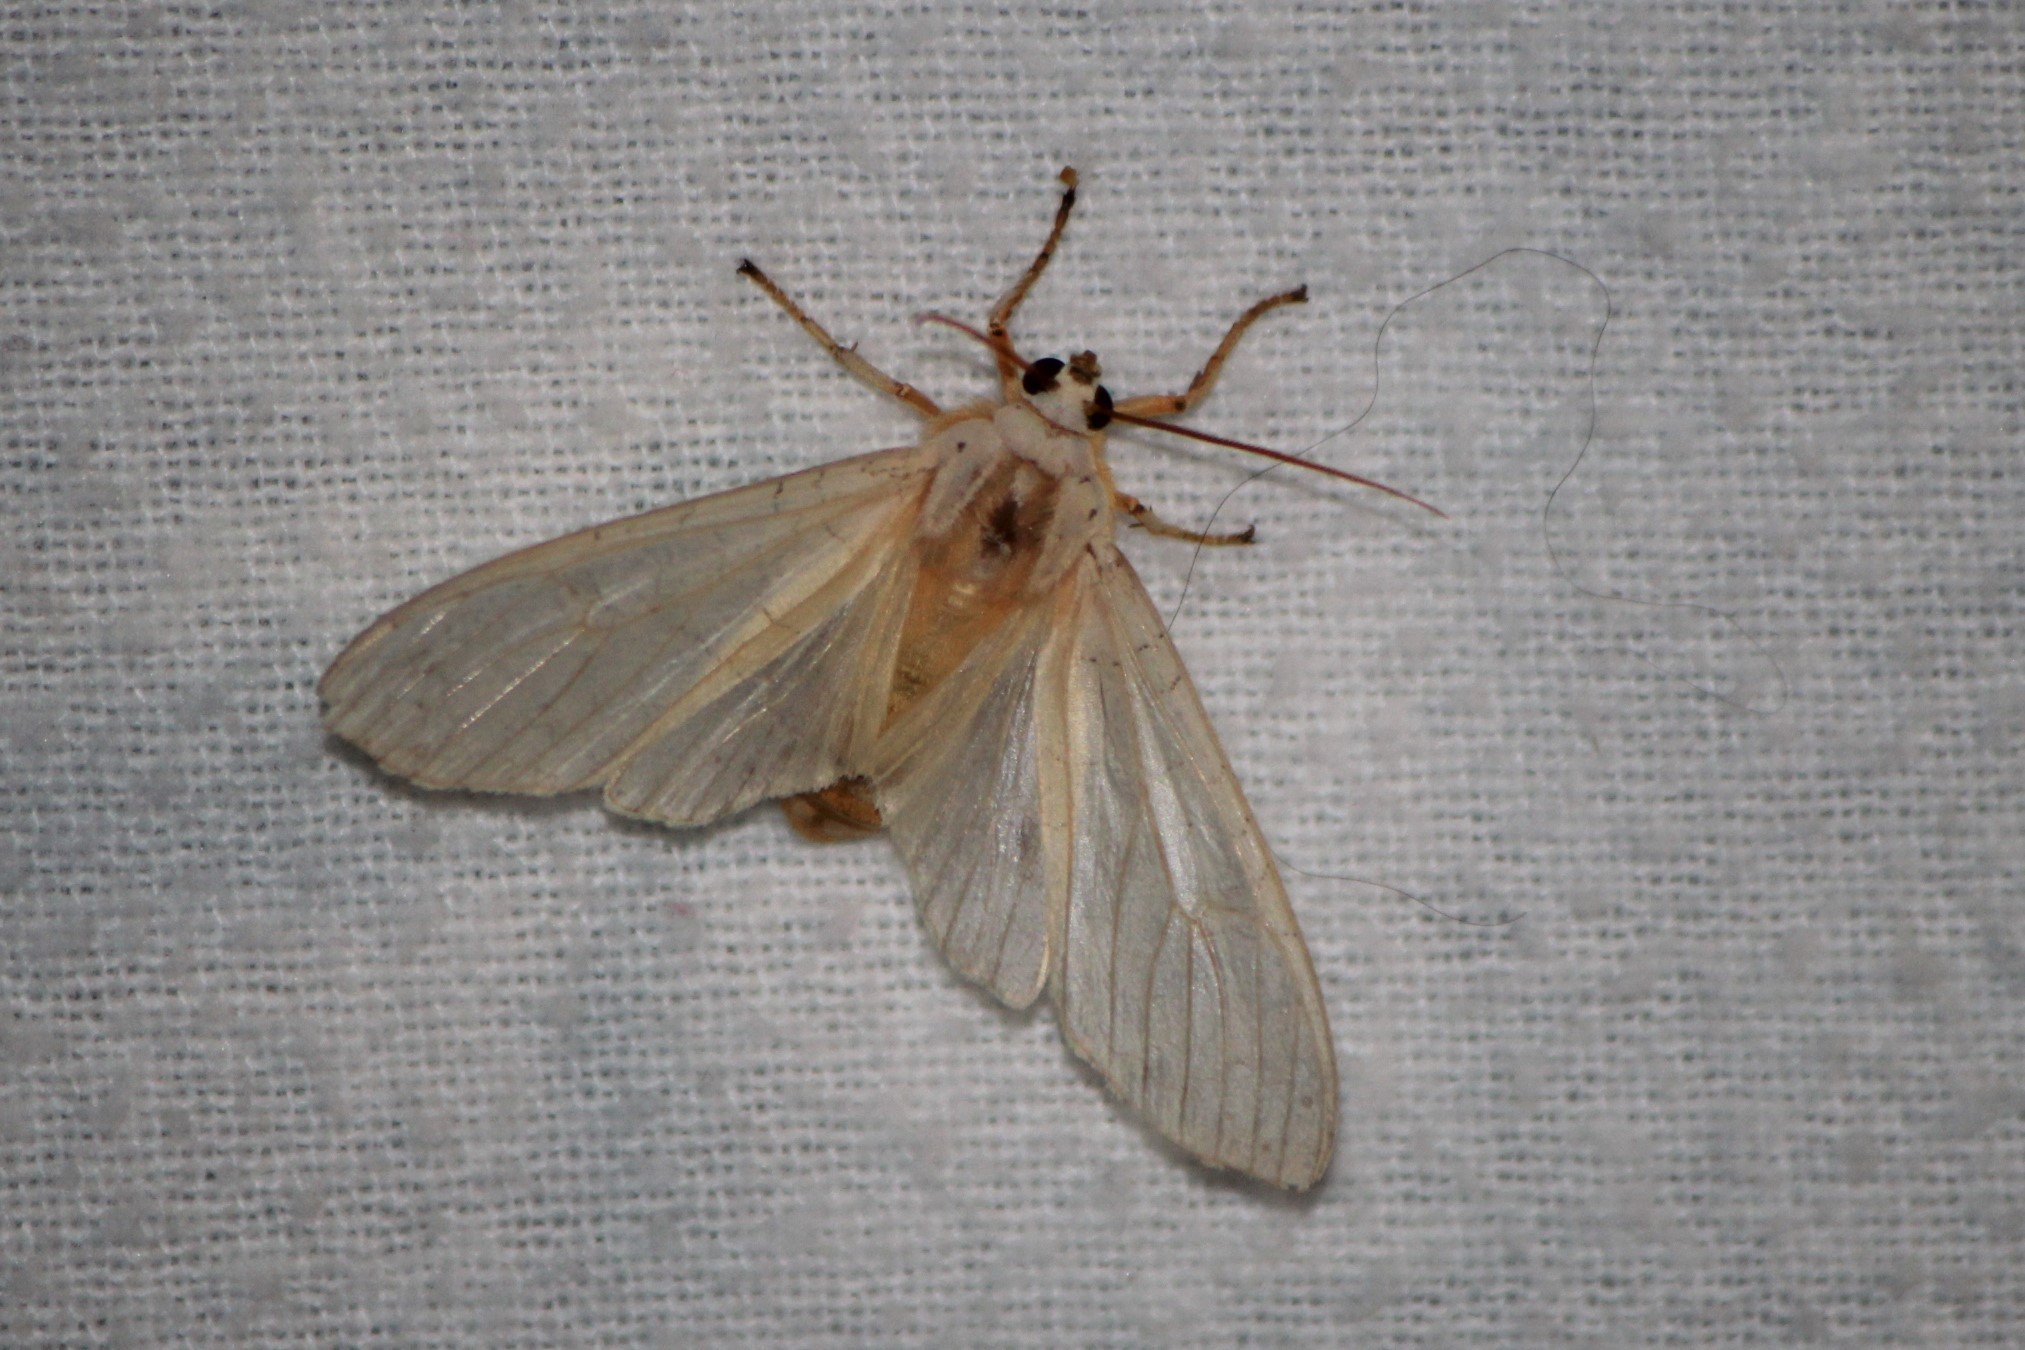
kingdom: Animalia
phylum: Arthropoda
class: Insecta
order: Lepidoptera
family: Erebidae
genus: Halysidota
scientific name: Halysidota
